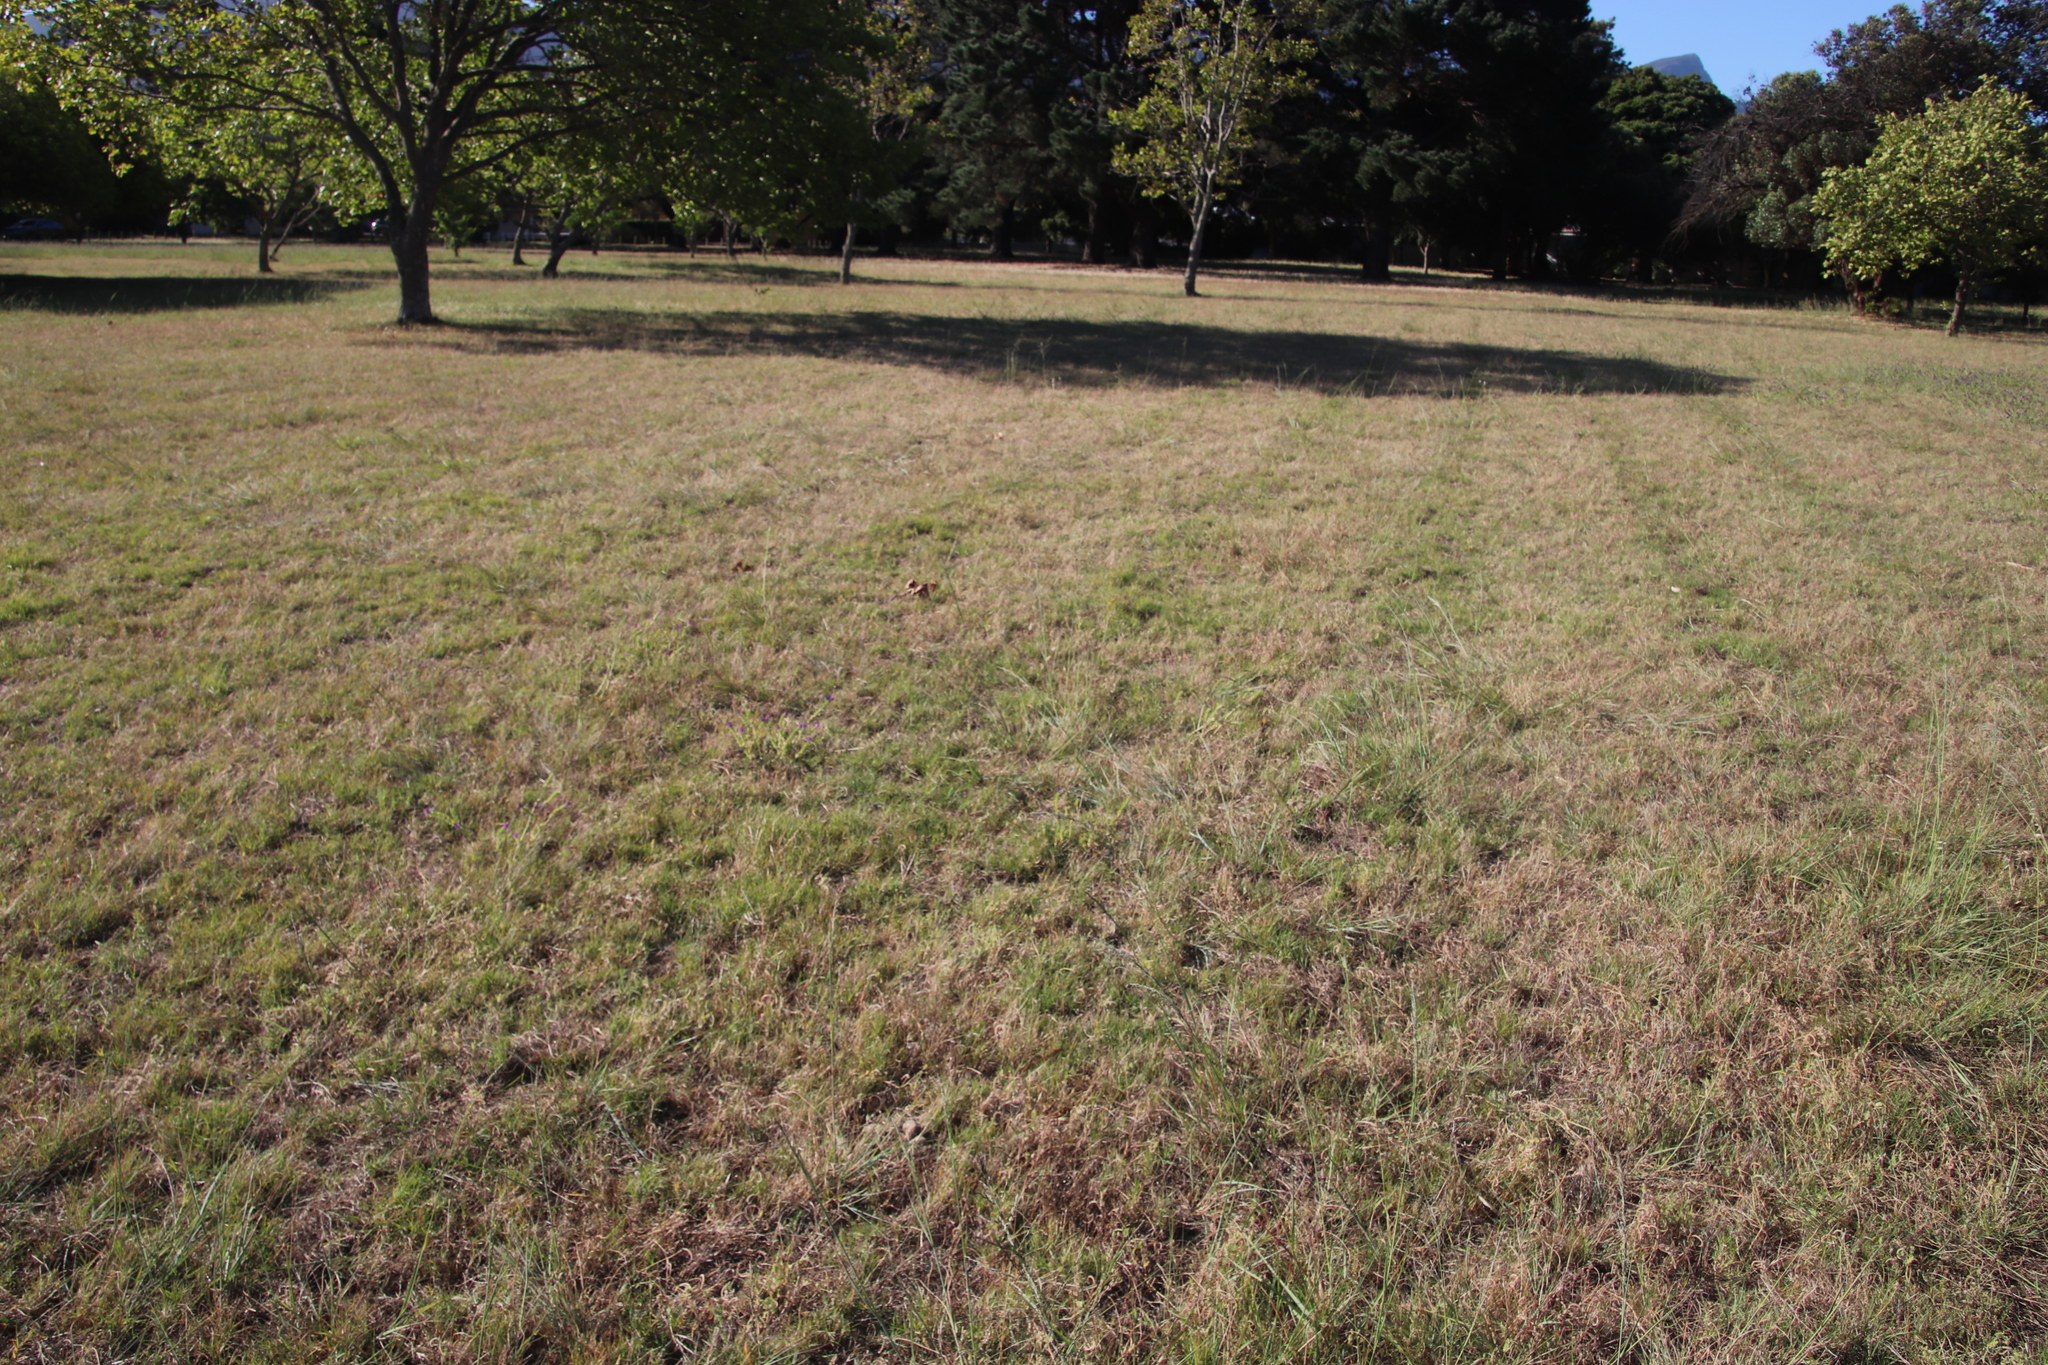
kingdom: Plantae
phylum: Tracheophyta
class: Liliopsida
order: Poales
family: Poaceae
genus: Cynodon
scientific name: Cynodon dactylon
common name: Bermuda grass
